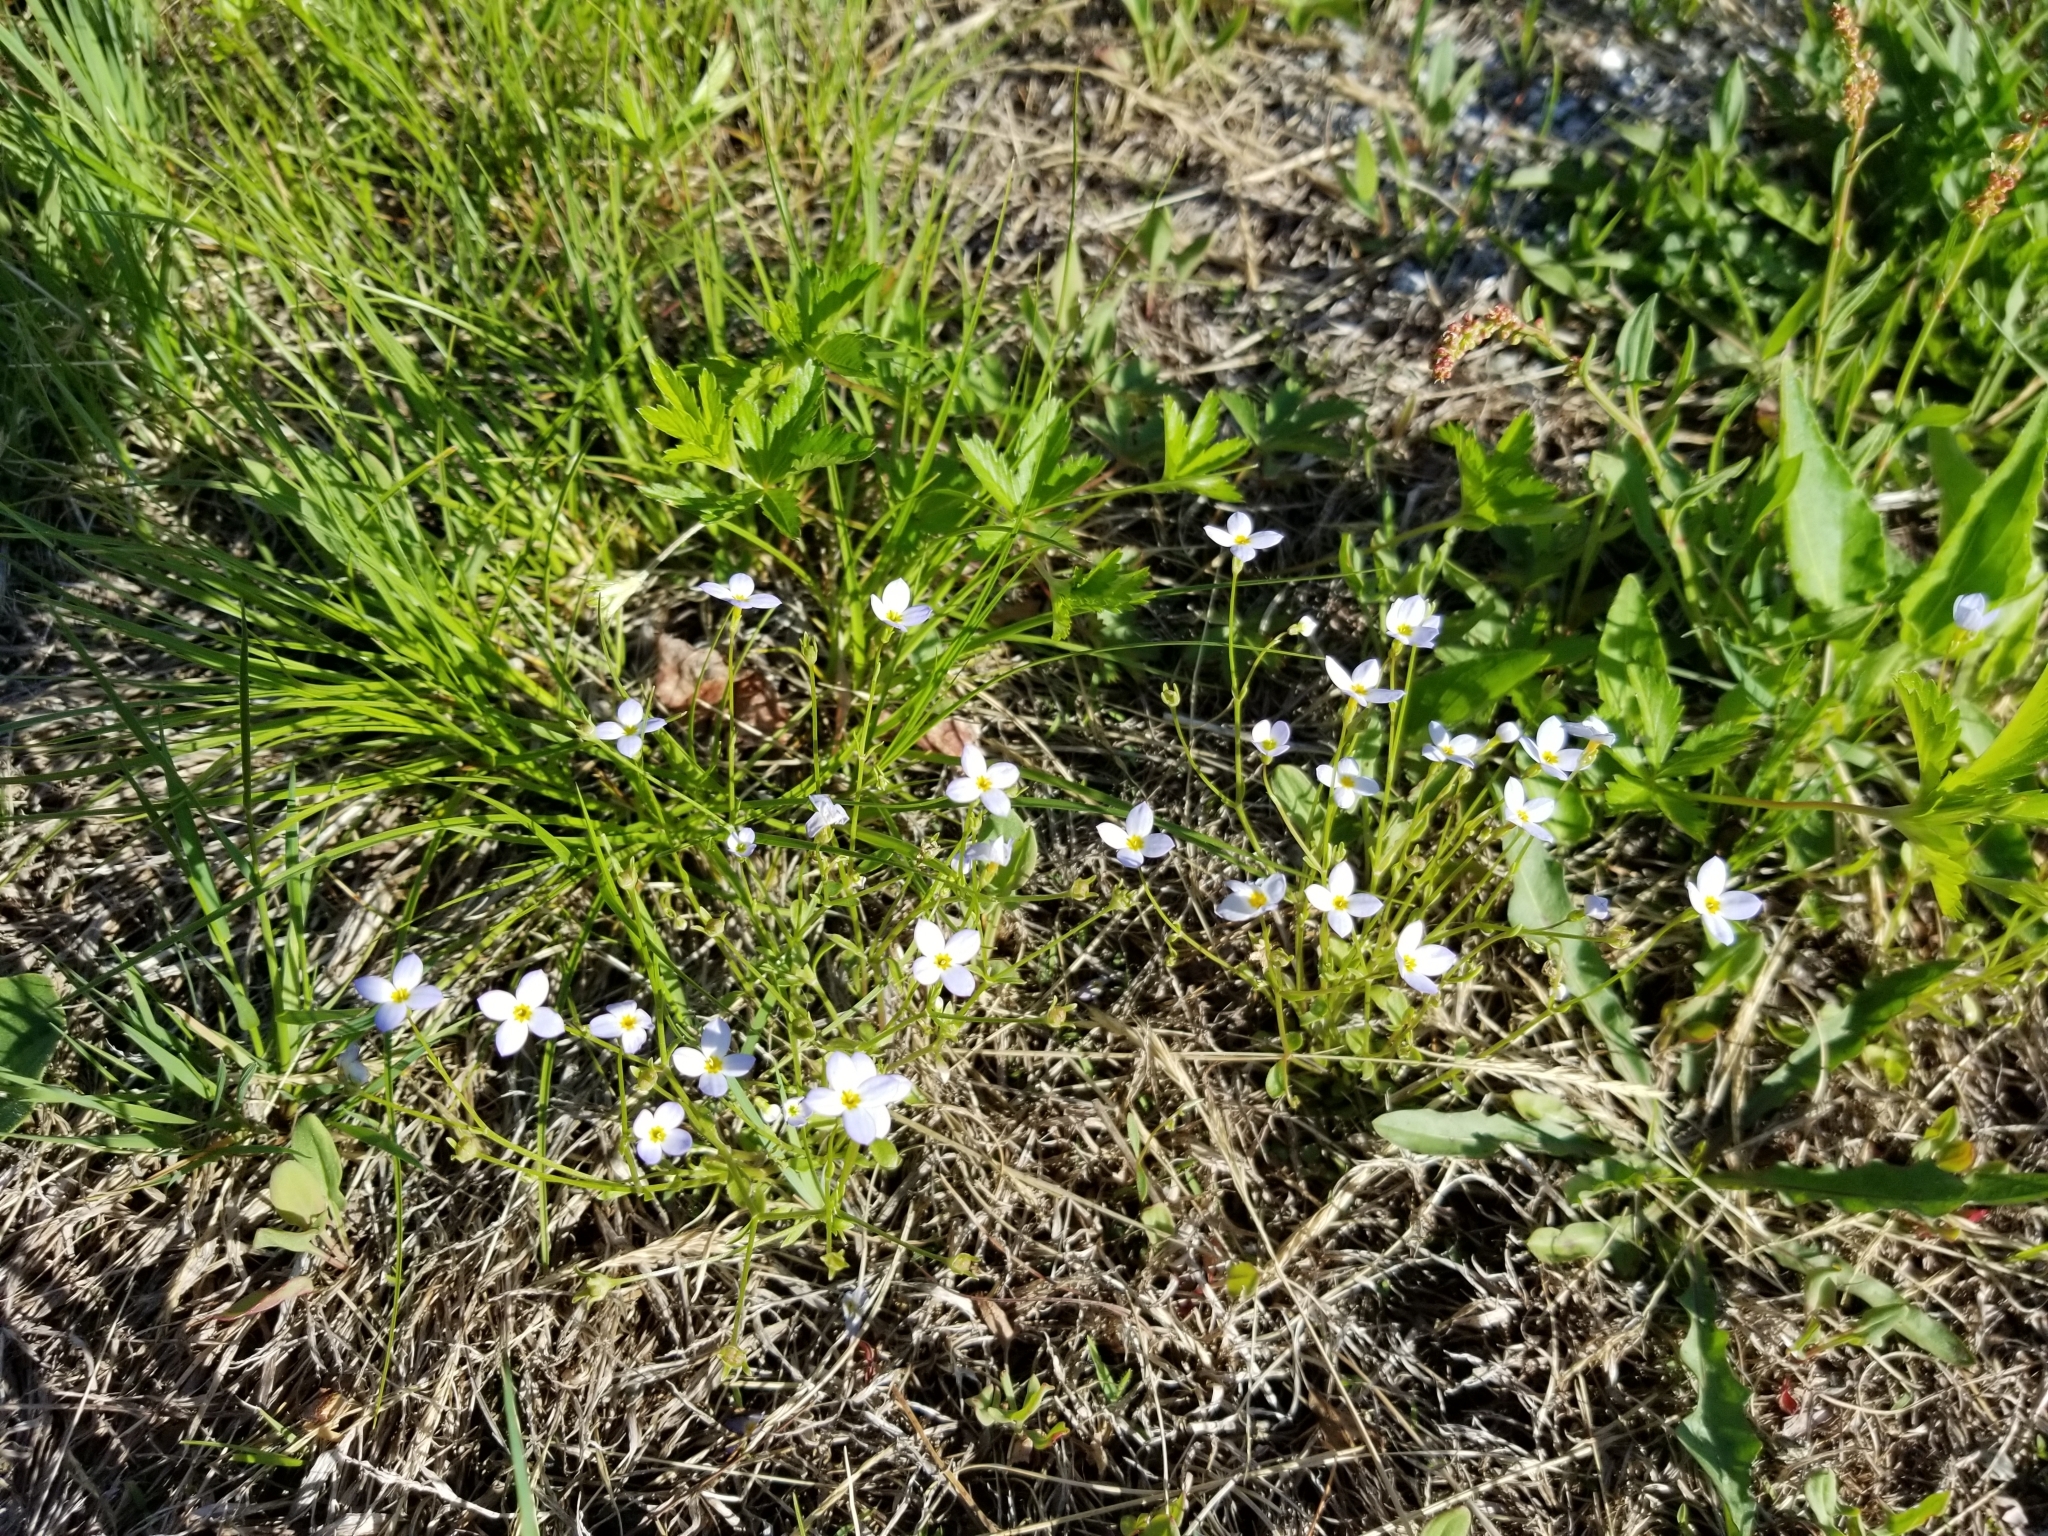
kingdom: Plantae
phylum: Tracheophyta
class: Magnoliopsida
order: Gentianales
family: Rubiaceae
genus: Houstonia
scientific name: Houstonia caerulea
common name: Bluets
